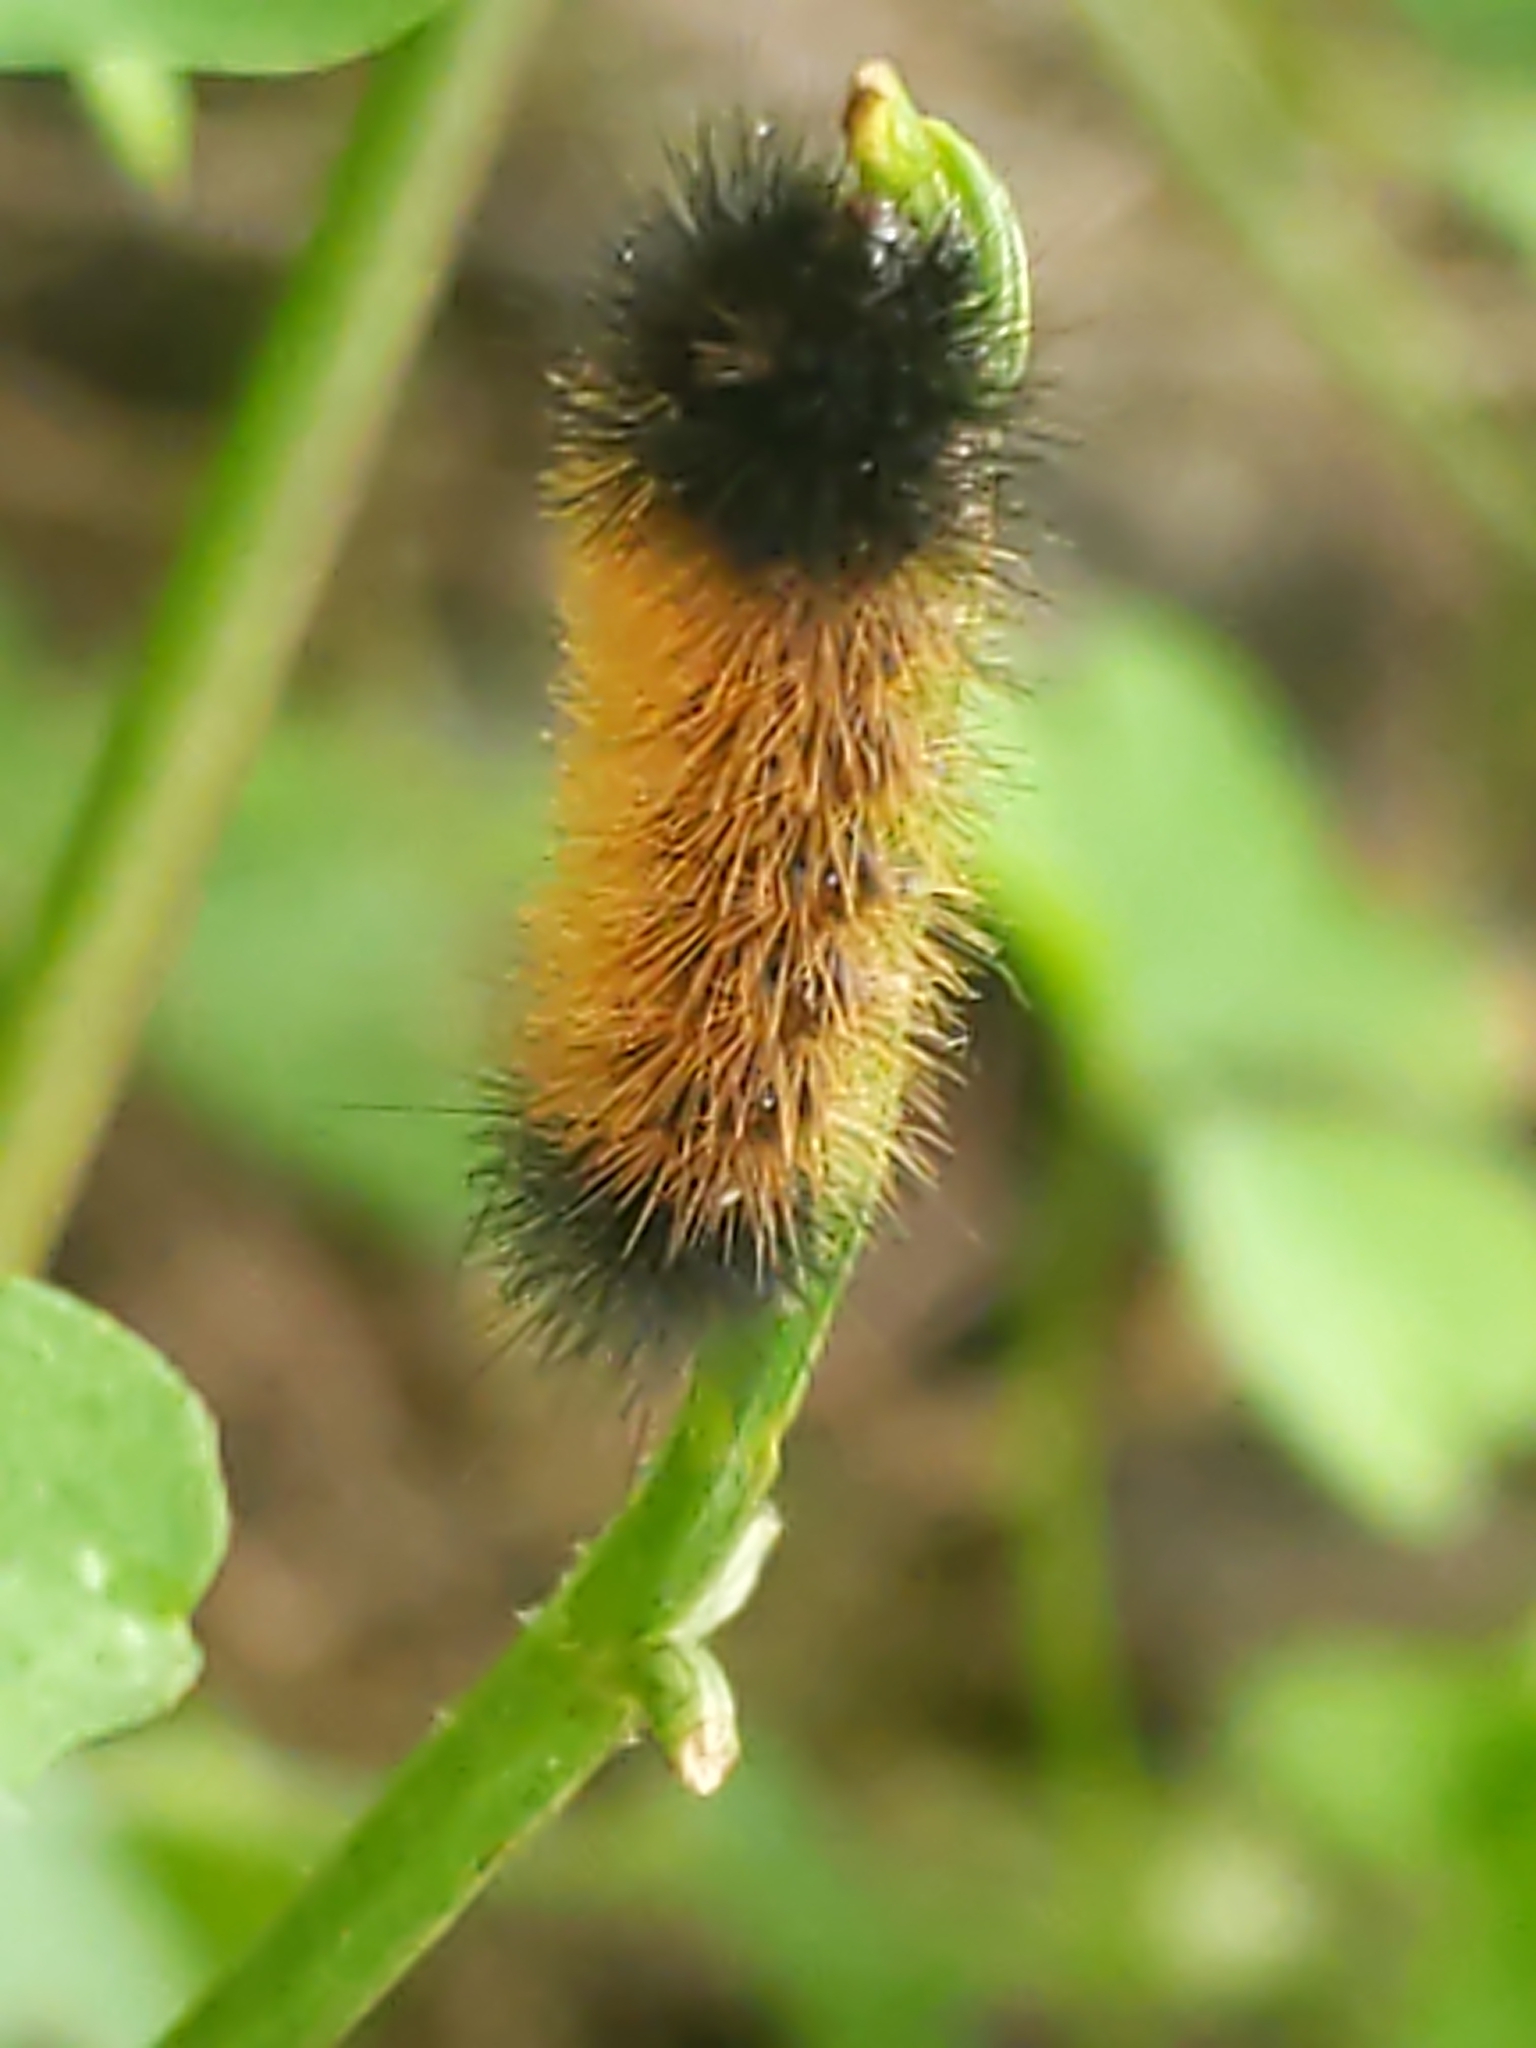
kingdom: Animalia
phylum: Arthropoda
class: Insecta
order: Lepidoptera
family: Erebidae
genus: Pyrrharctia
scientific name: Pyrrharctia isabella
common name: Isabella tiger moth
